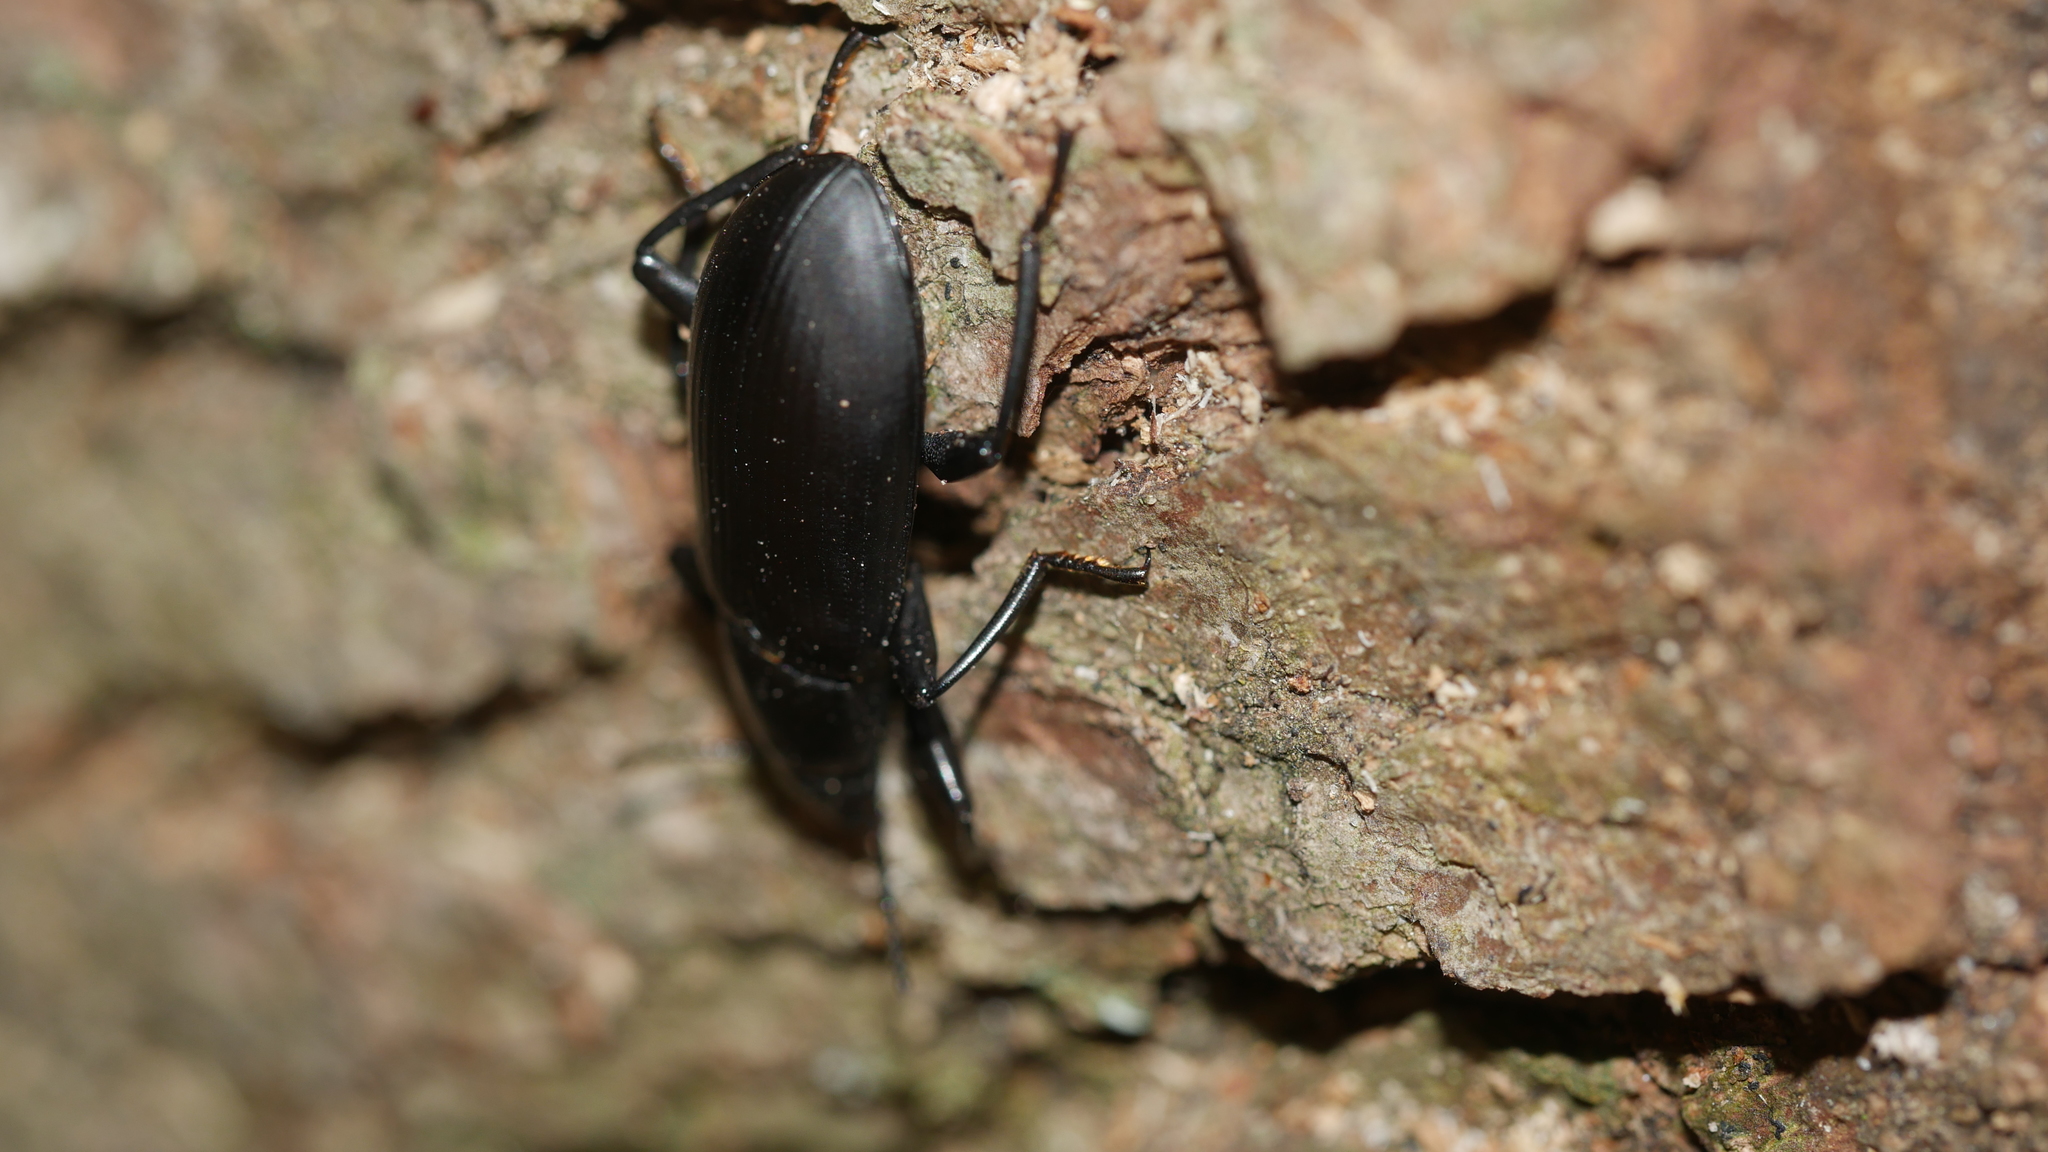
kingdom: Animalia
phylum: Arthropoda
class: Insecta
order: Coleoptera
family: Tenebrionidae
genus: Alobates
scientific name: Alobates
